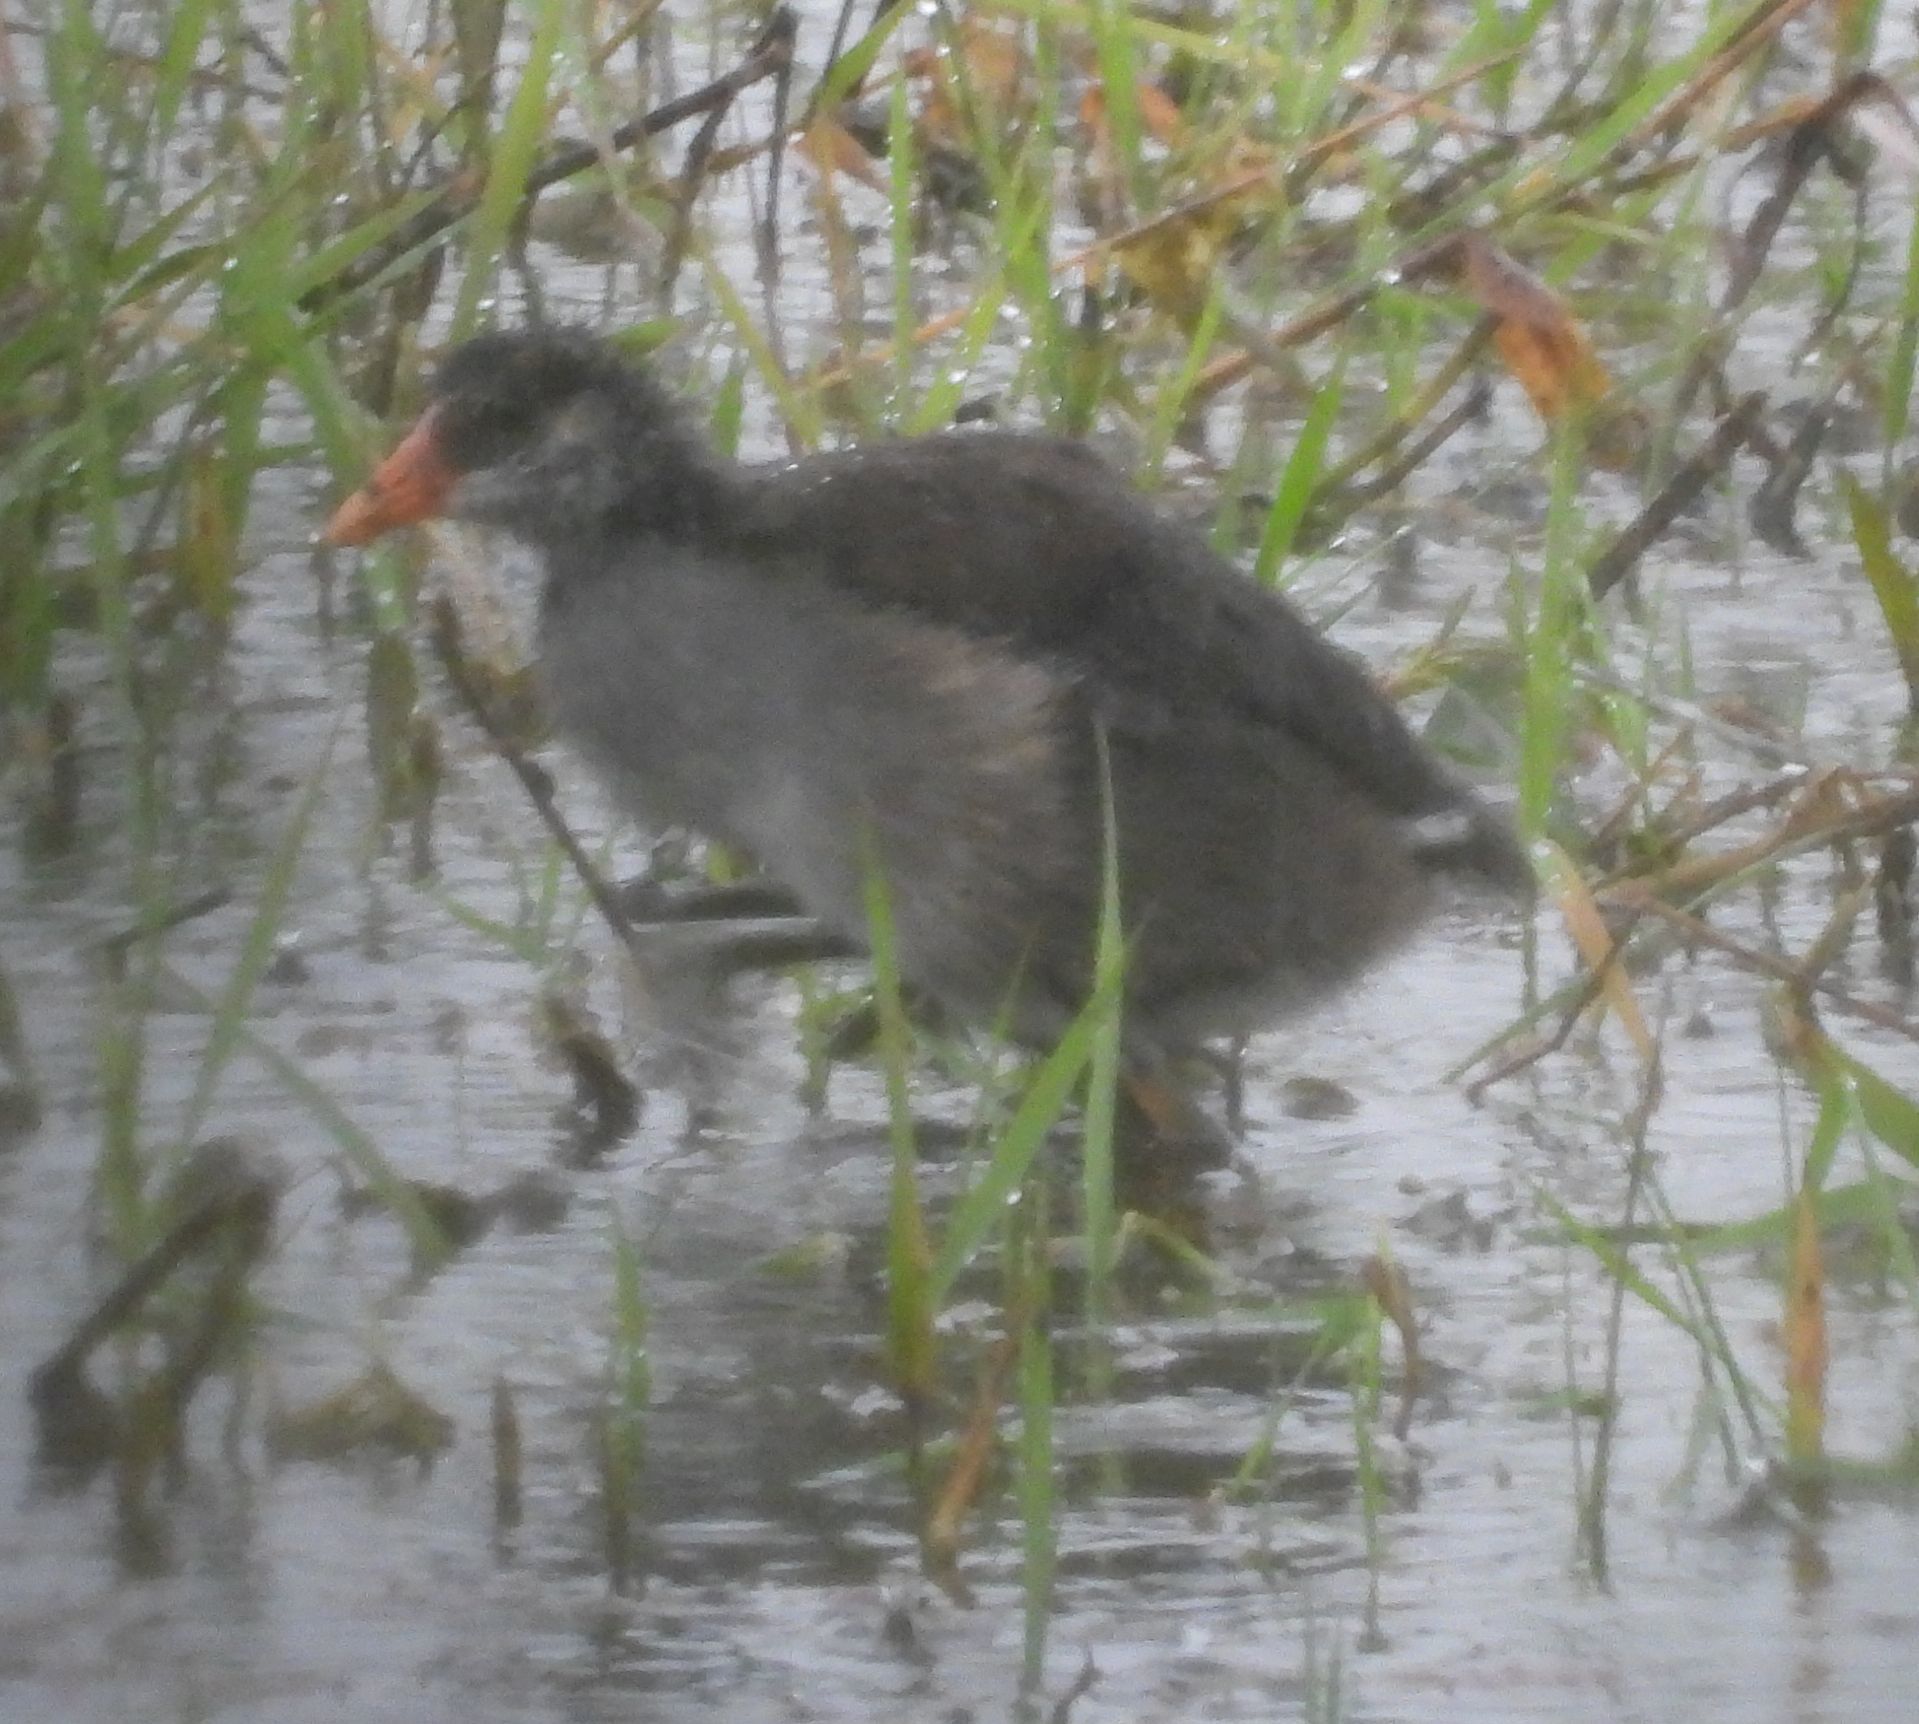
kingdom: Animalia
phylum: Chordata
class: Aves
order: Gruiformes
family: Rallidae
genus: Gallinula
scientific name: Gallinula chloropus
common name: Common moorhen
